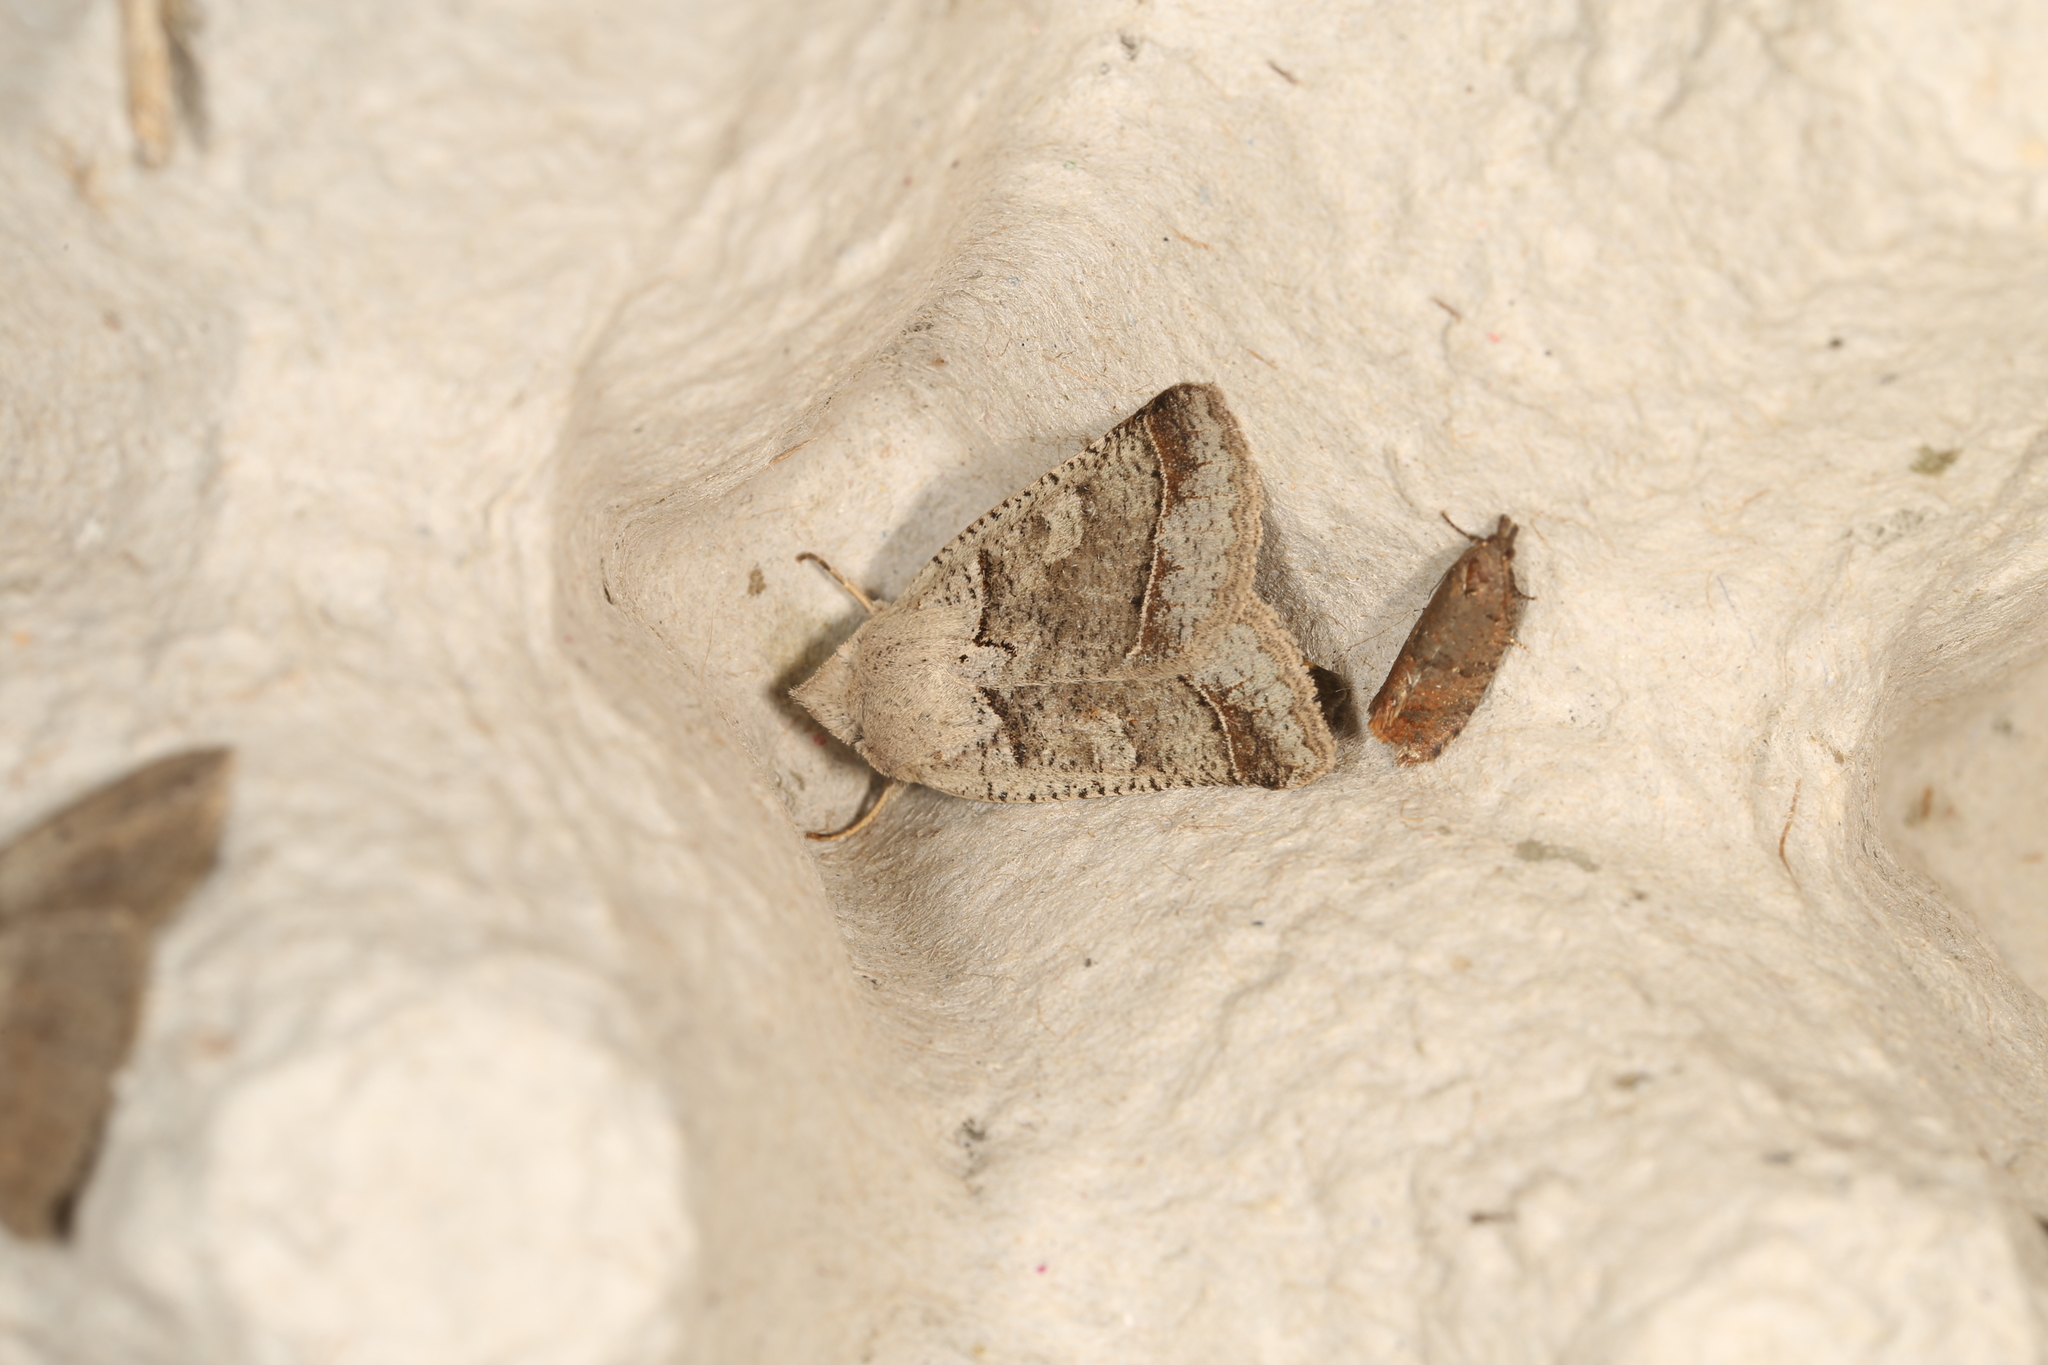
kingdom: Animalia
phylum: Arthropoda
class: Insecta
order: Lepidoptera
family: Erebidae
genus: Pantydia
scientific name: Pantydia sparsa
